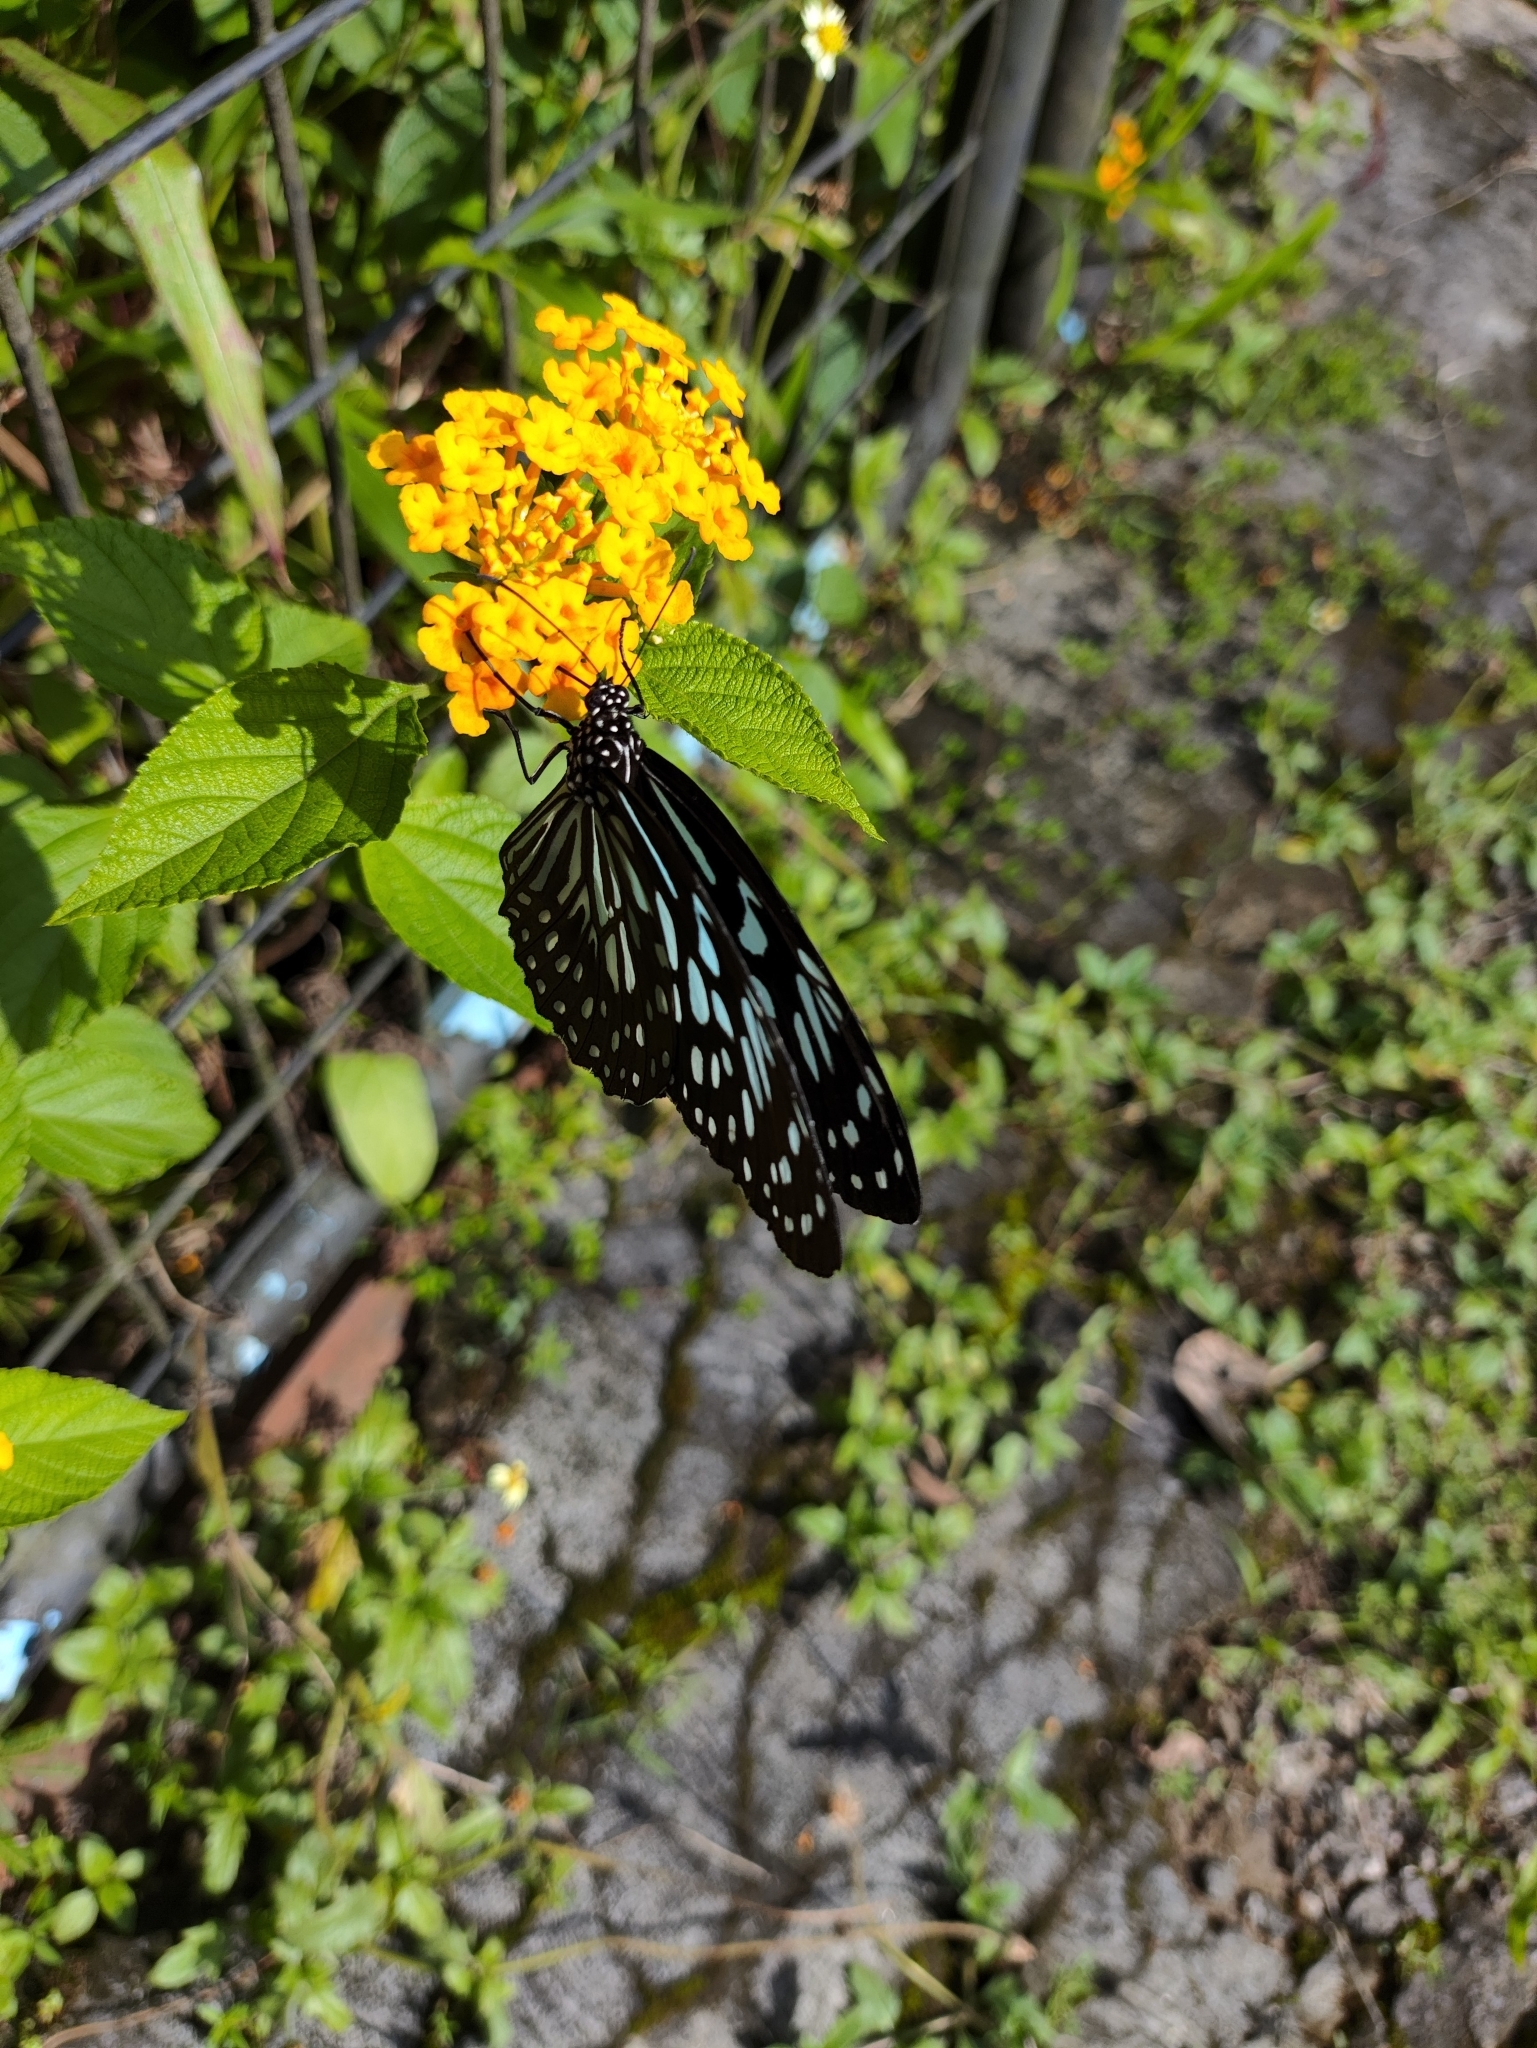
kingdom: Animalia
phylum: Arthropoda
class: Insecta
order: Lepidoptera
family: Nymphalidae
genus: Tirumala
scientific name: Tirumala septentrionis
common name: Dark blue tiger butterfly
